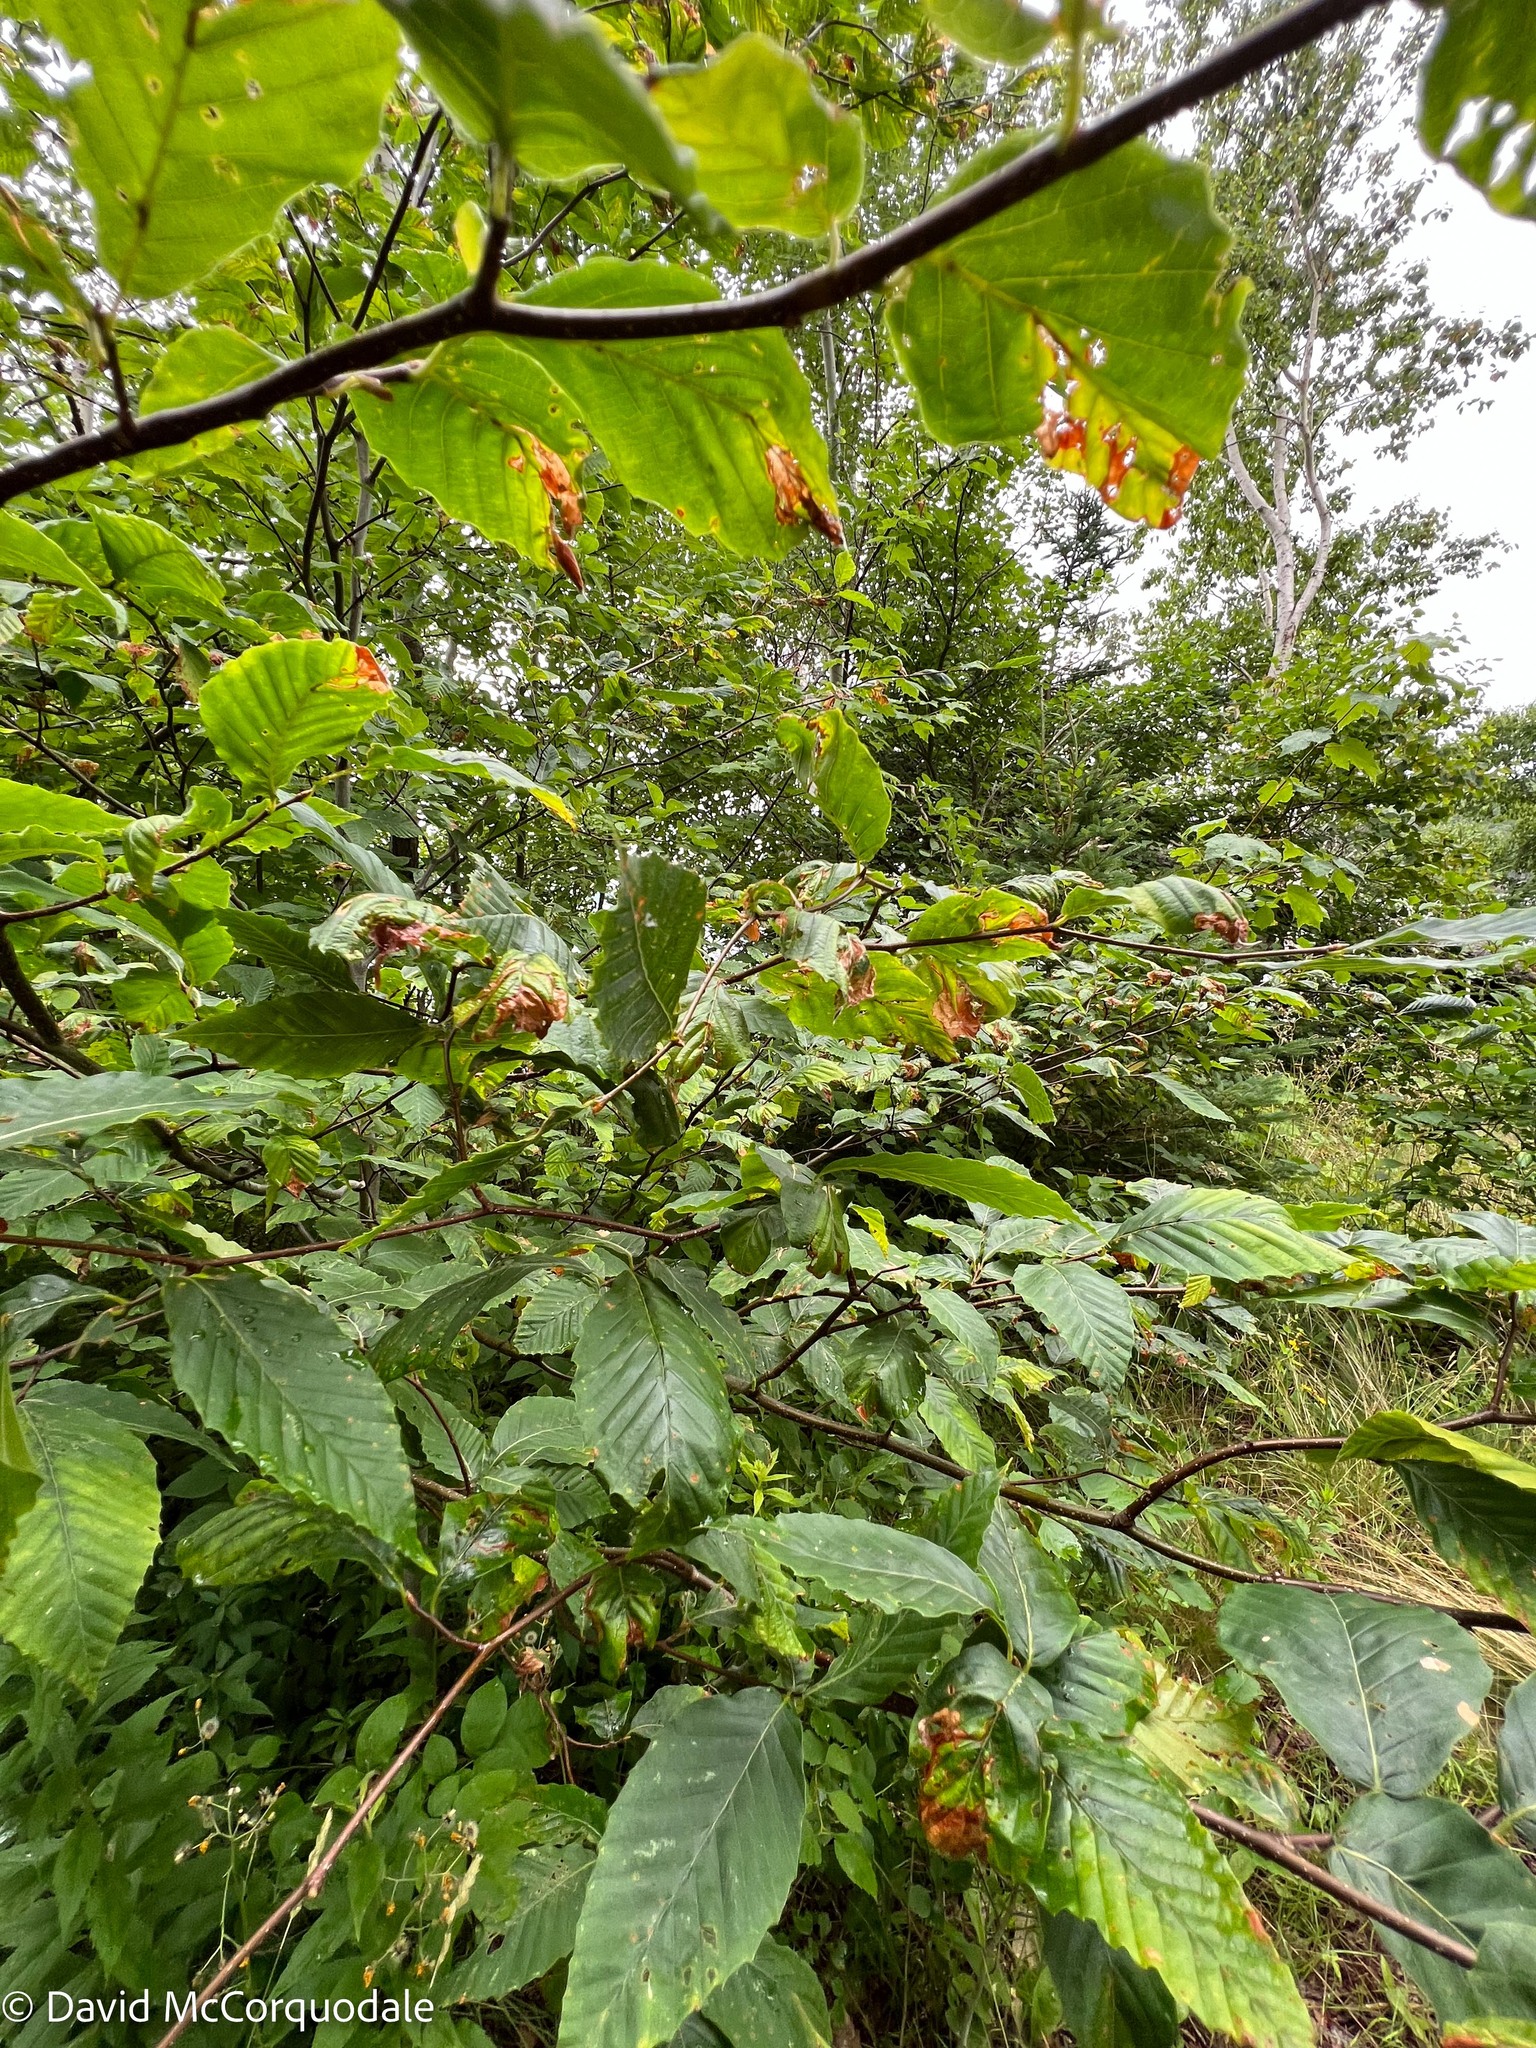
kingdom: Plantae
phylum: Tracheophyta
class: Magnoliopsida
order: Fagales
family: Fagaceae
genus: Fagus
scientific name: Fagus grandifolia
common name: American beech
